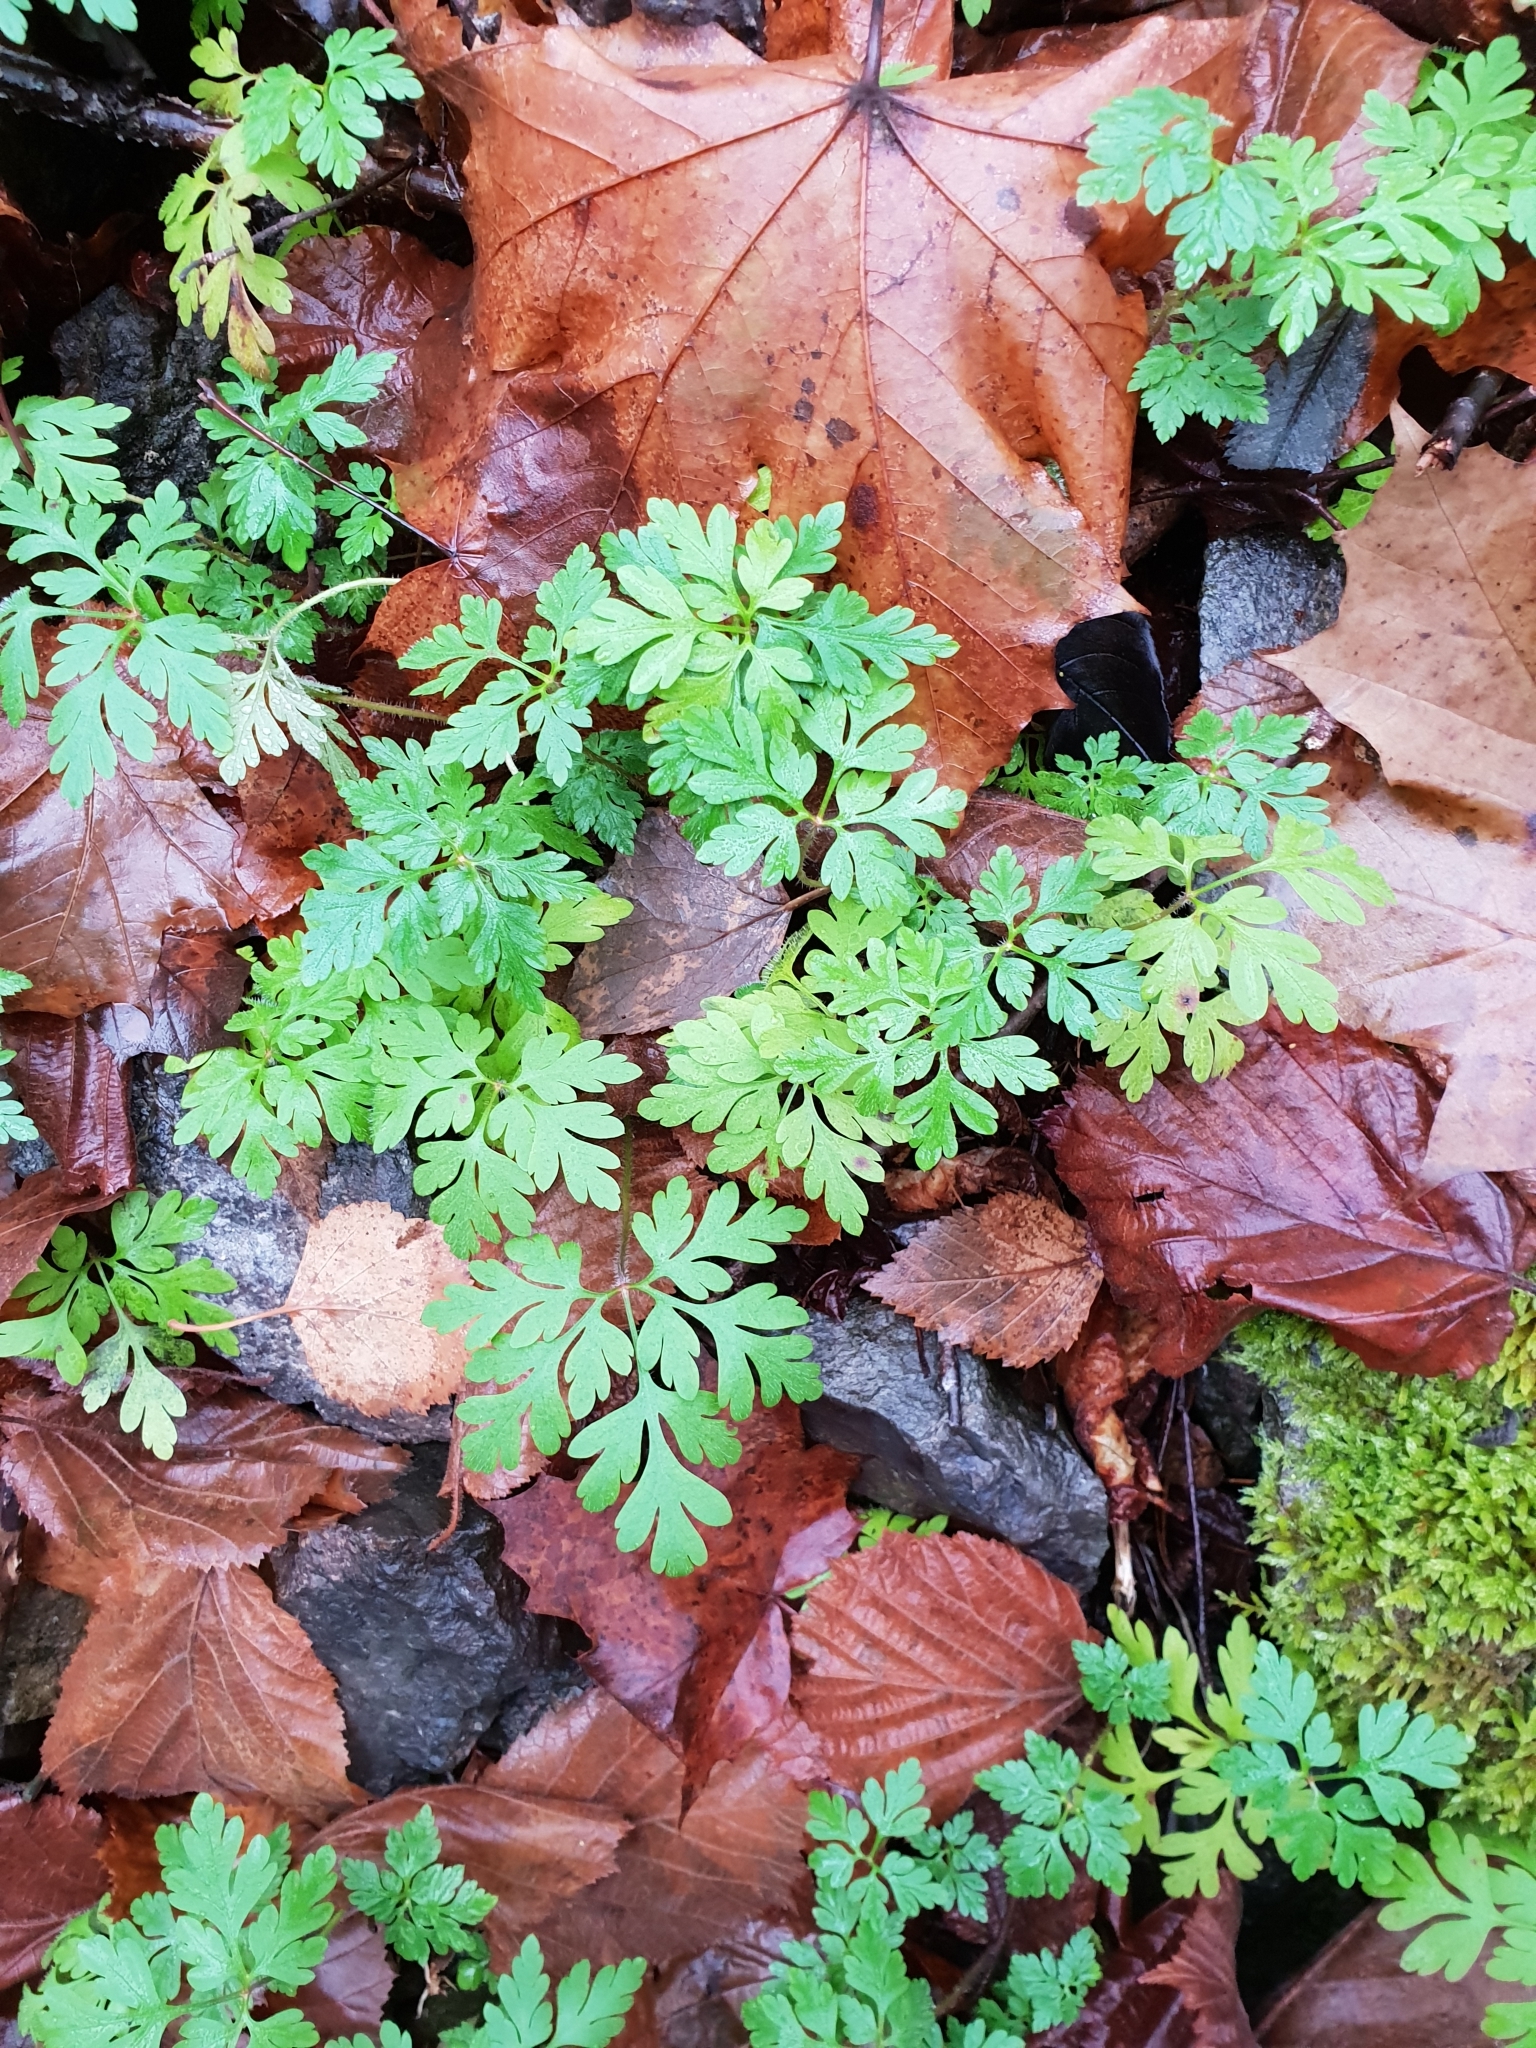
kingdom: Plantae
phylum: Tracheophyta
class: Magnoliopsida
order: Geraniales
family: Geraniaceae
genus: Geranium
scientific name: Geranium robertianum
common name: Herb-robert
